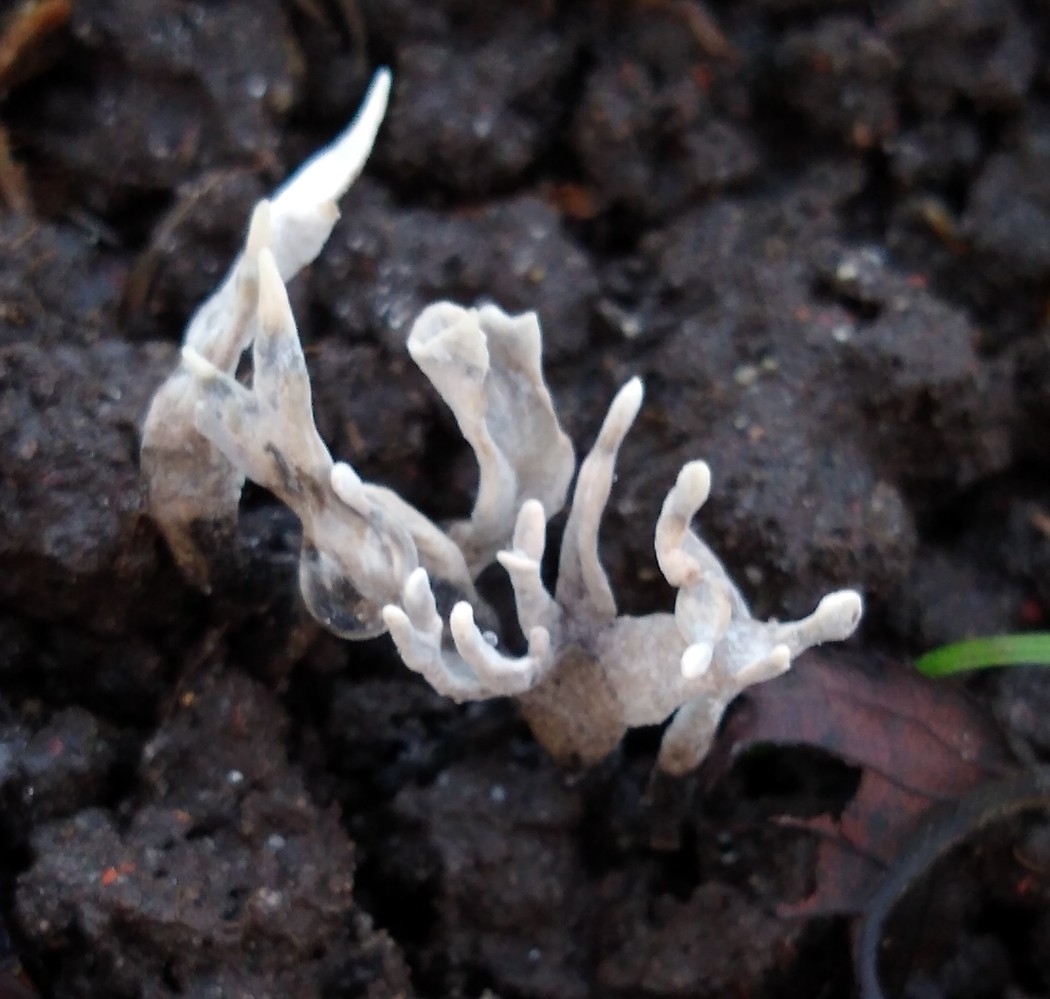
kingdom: Fungi
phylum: Ascomycota
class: Sordariomycetes
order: Xylariales
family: Xylariaceae
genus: Xylaria
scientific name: Xylaria hypoxylon
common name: Candle-snuff fungus
